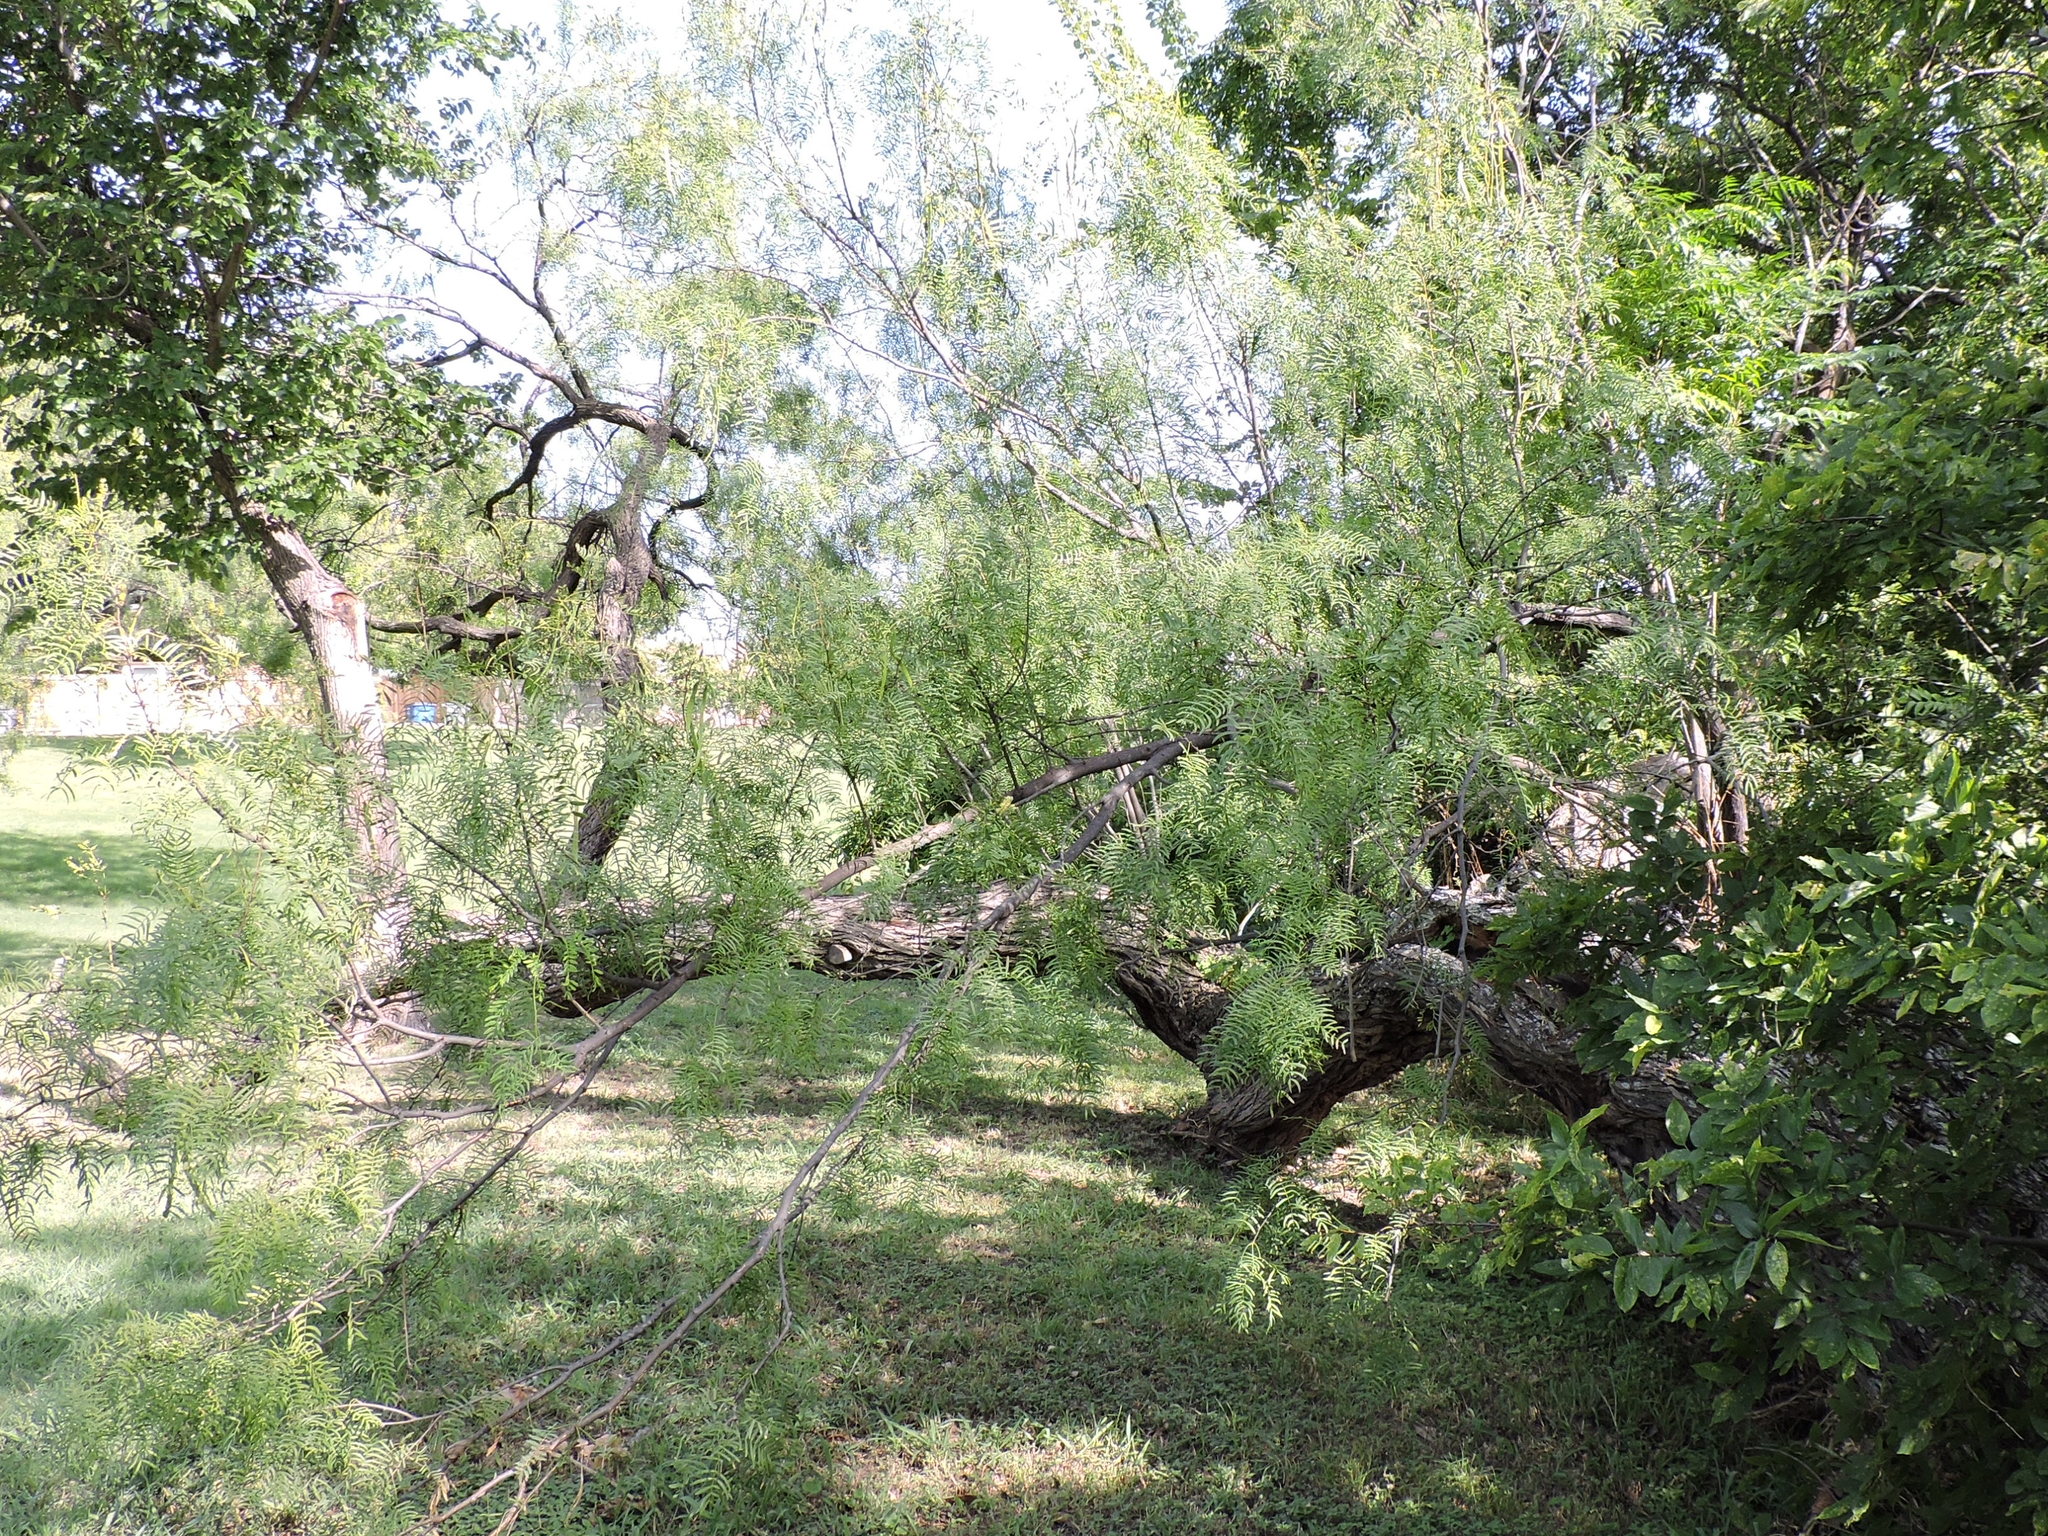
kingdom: Plantae
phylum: Tracheophyta
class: Magnoliopsida
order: Fabales
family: Fabaceae
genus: Prosopis
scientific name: Prosopis glandulosa
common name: Honey mesquite
